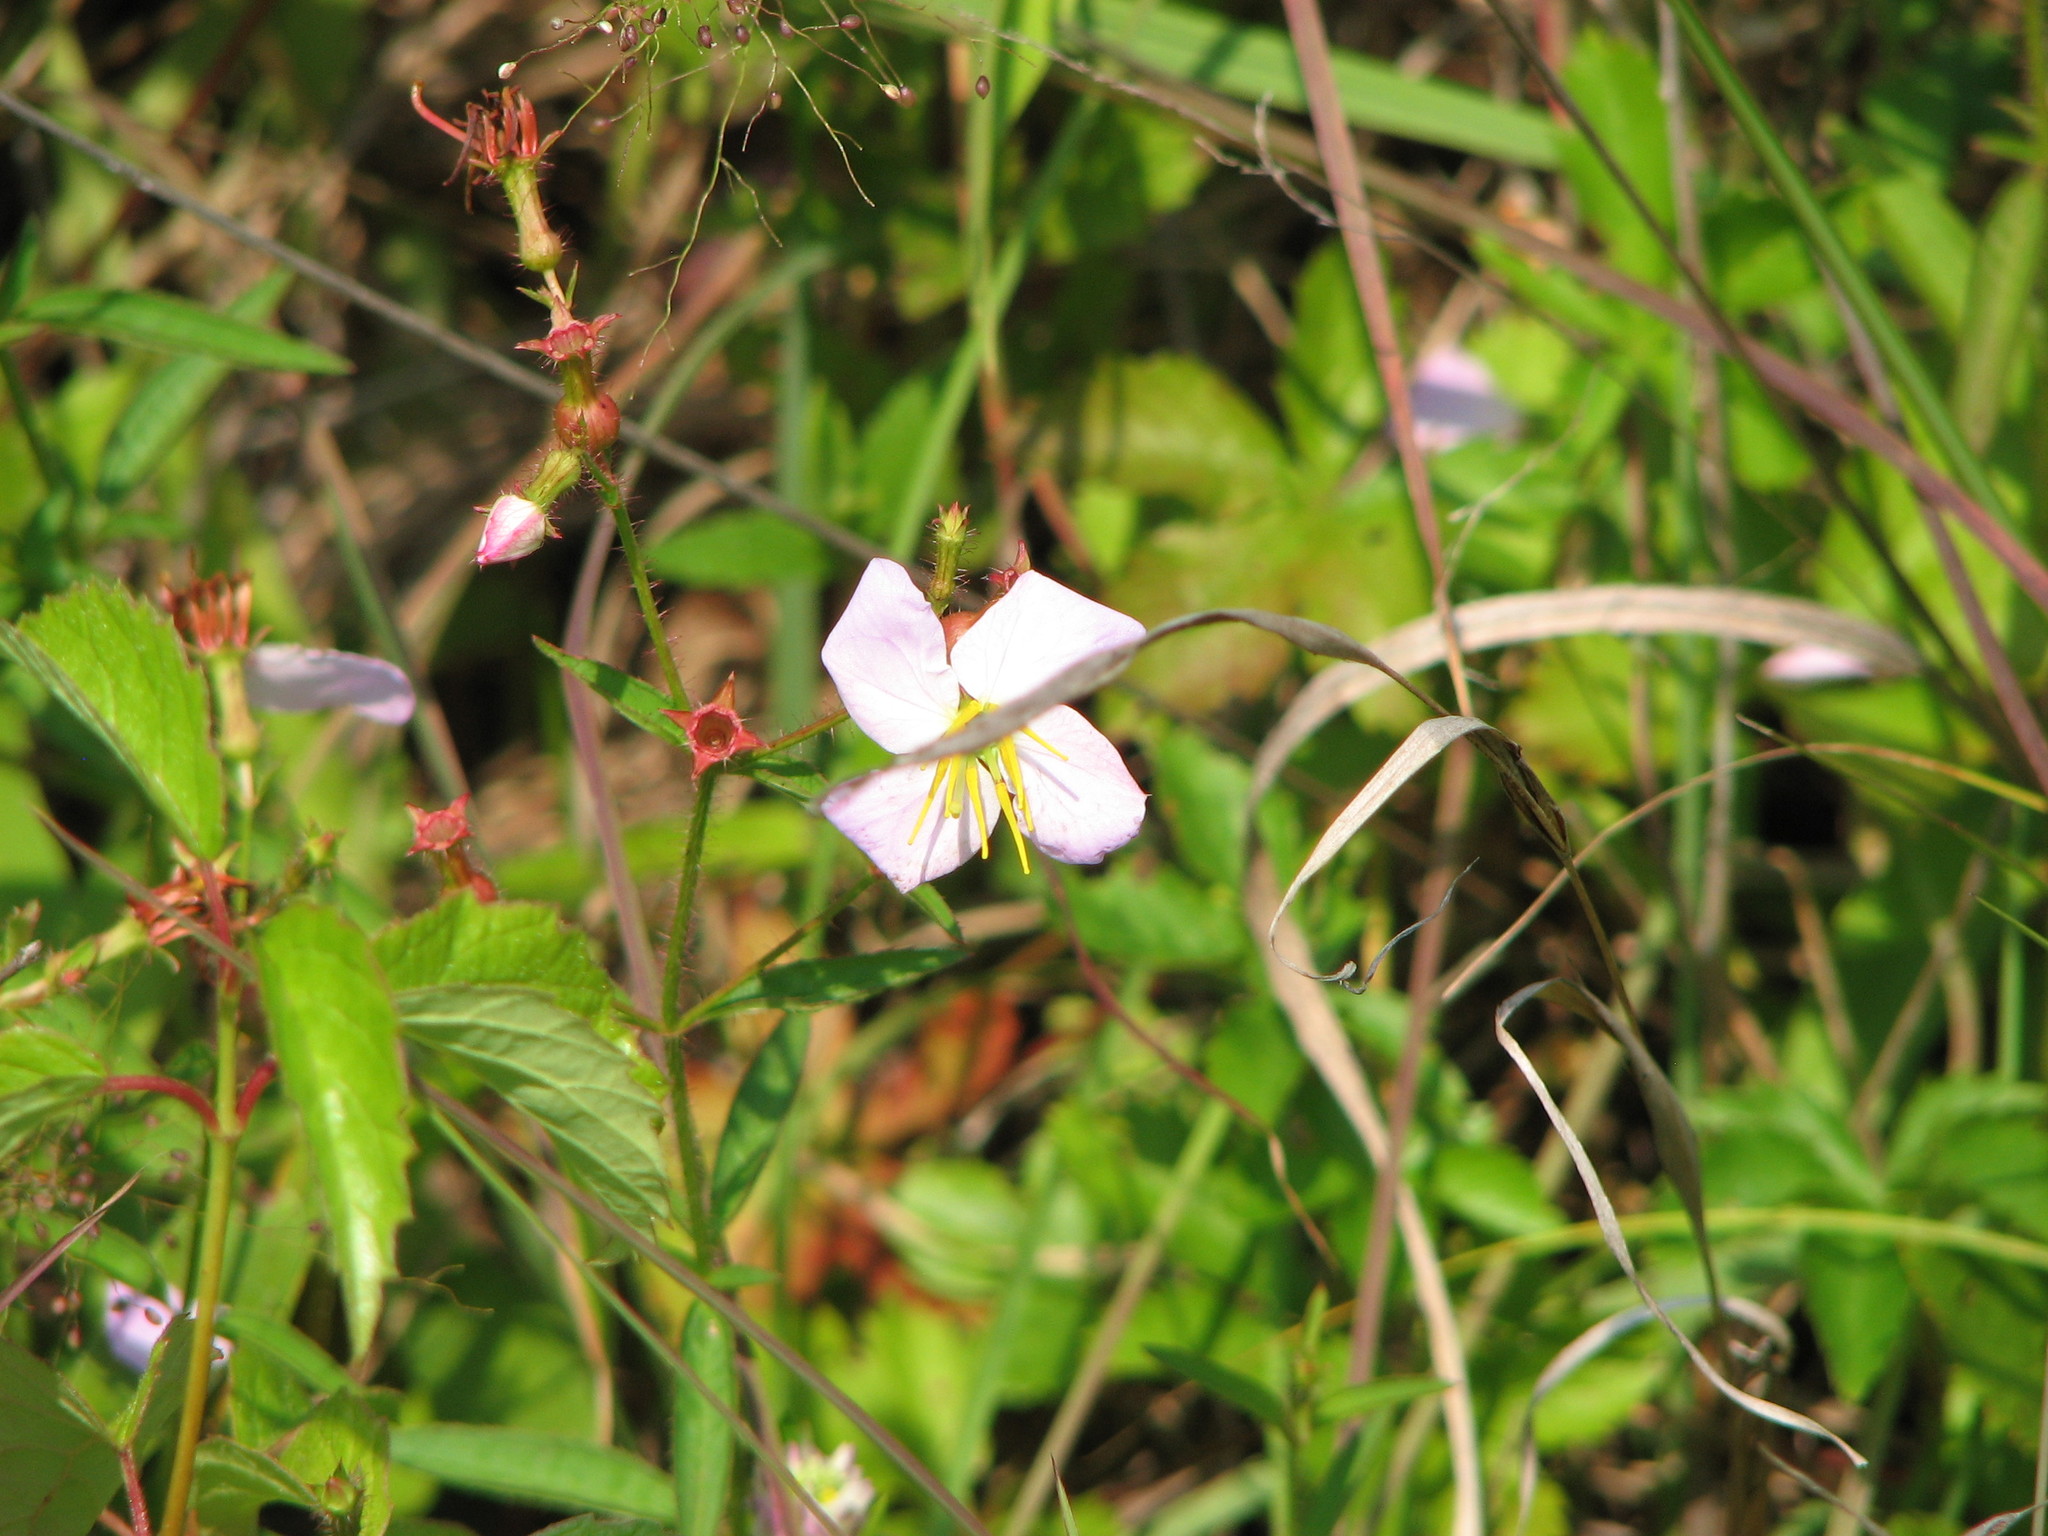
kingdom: Plantae
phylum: Tracheophyta
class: Magnoliopsida
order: Myrtales
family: Melastomataceae
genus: Rhexia
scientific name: Rhexia mariana
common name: Dull meadow-pitcher
